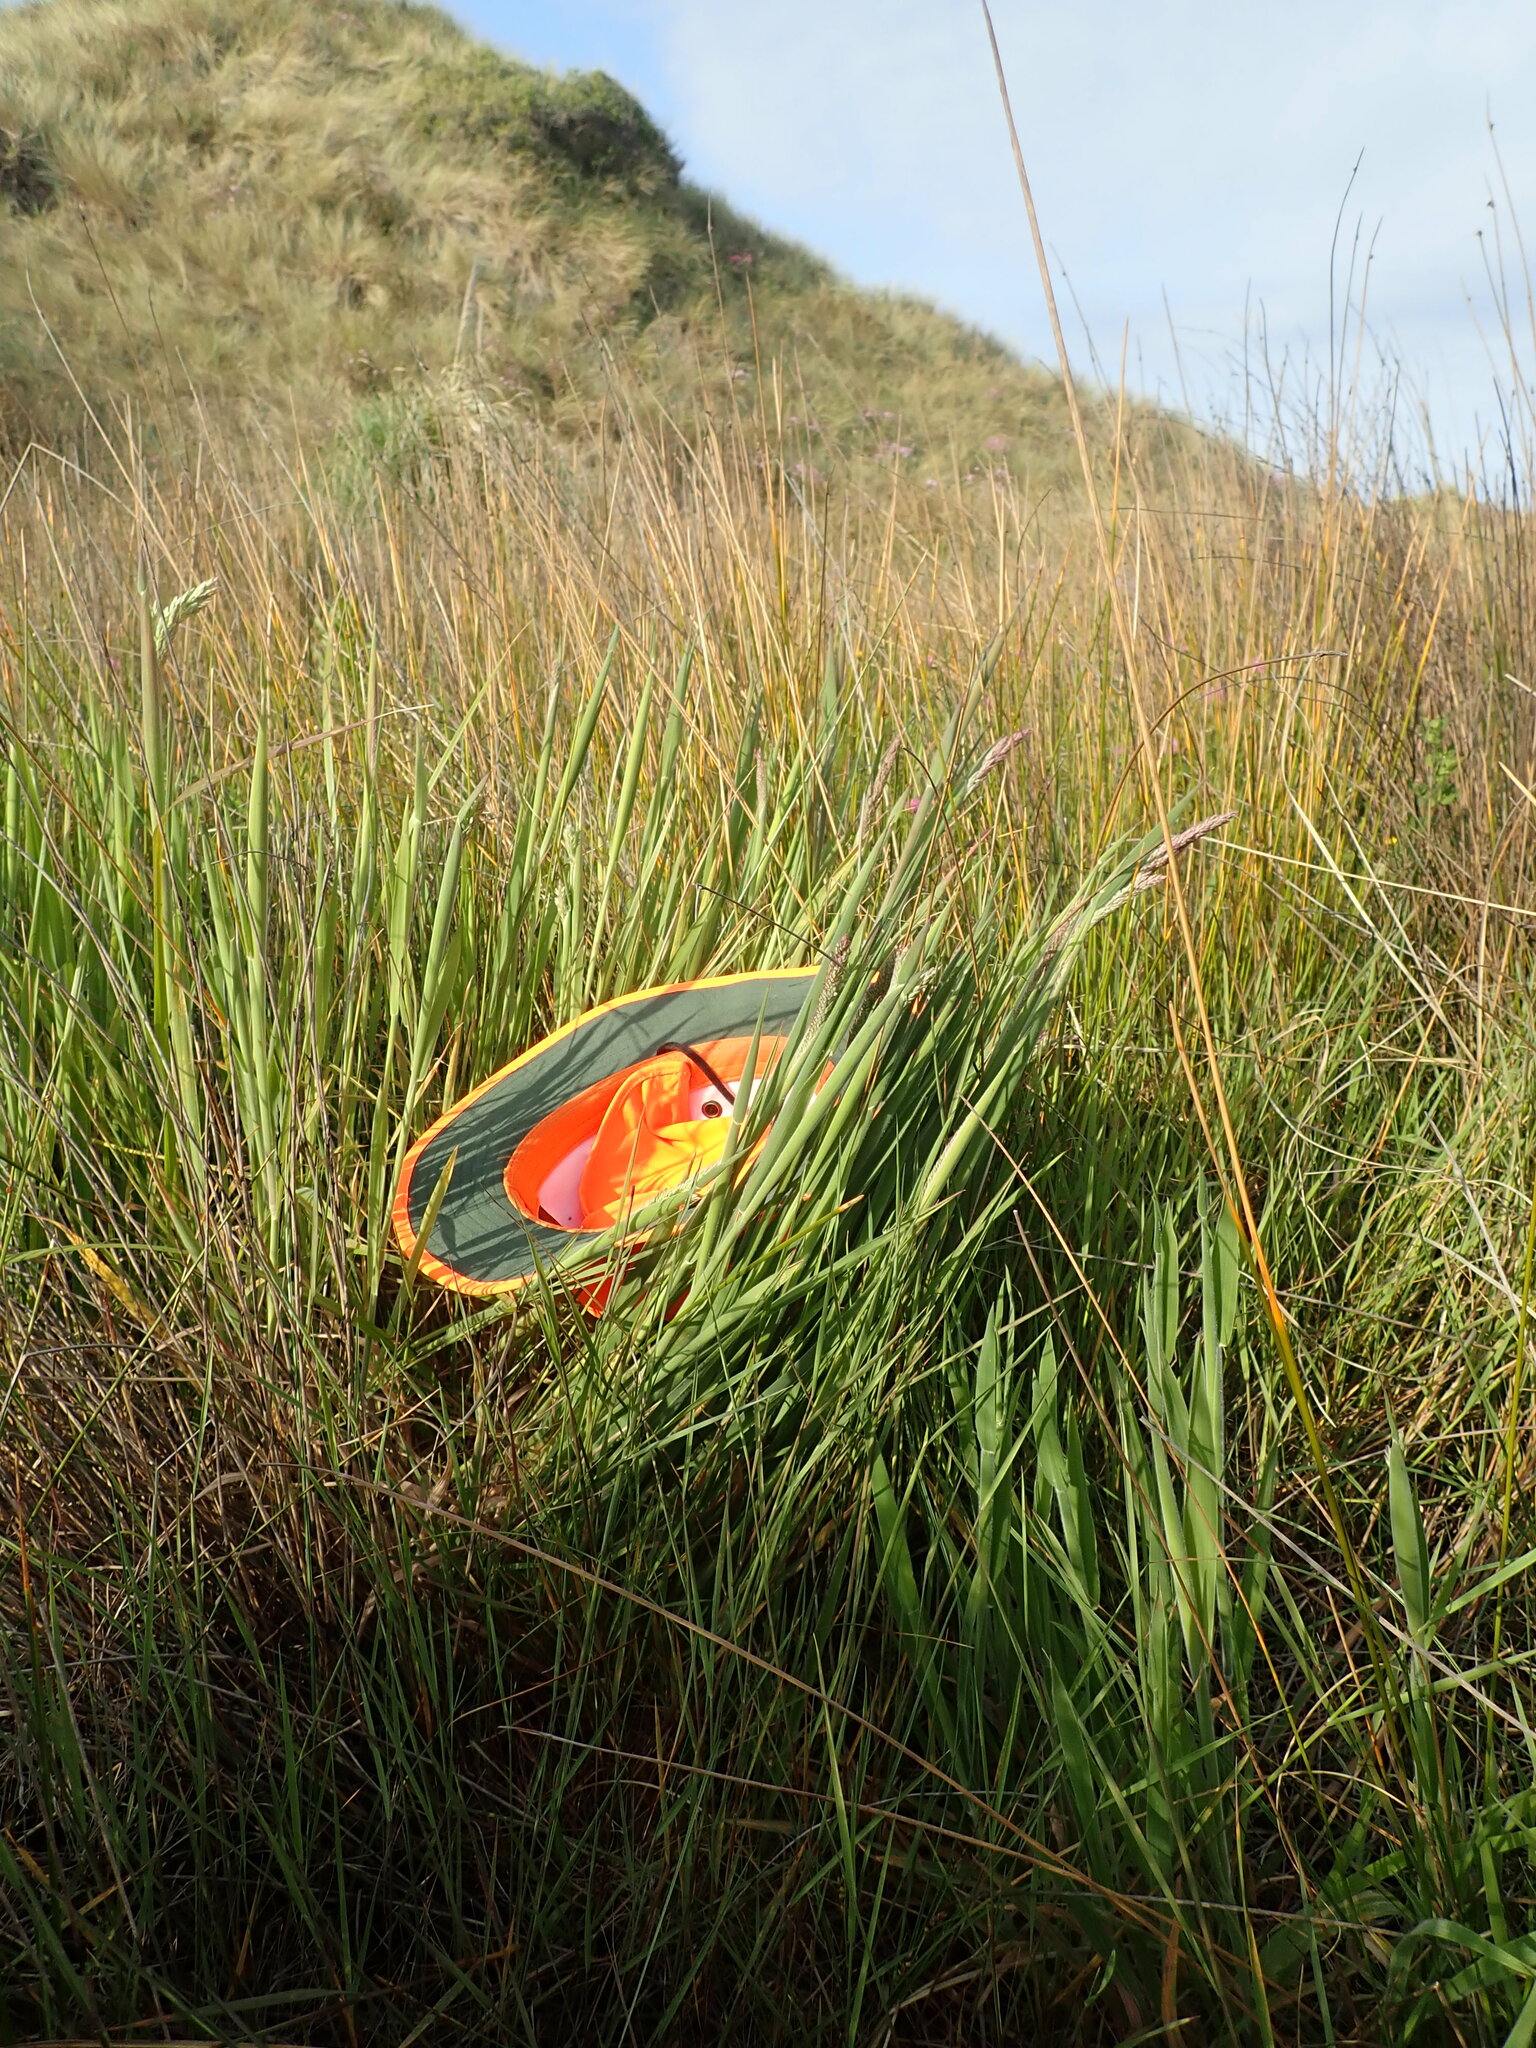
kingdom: Plantae
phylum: Tracheophyta
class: Liliopsida
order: Poales
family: Poaceae
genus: Holcus
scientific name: Holcus lanatus
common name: Yorkshire-fog
